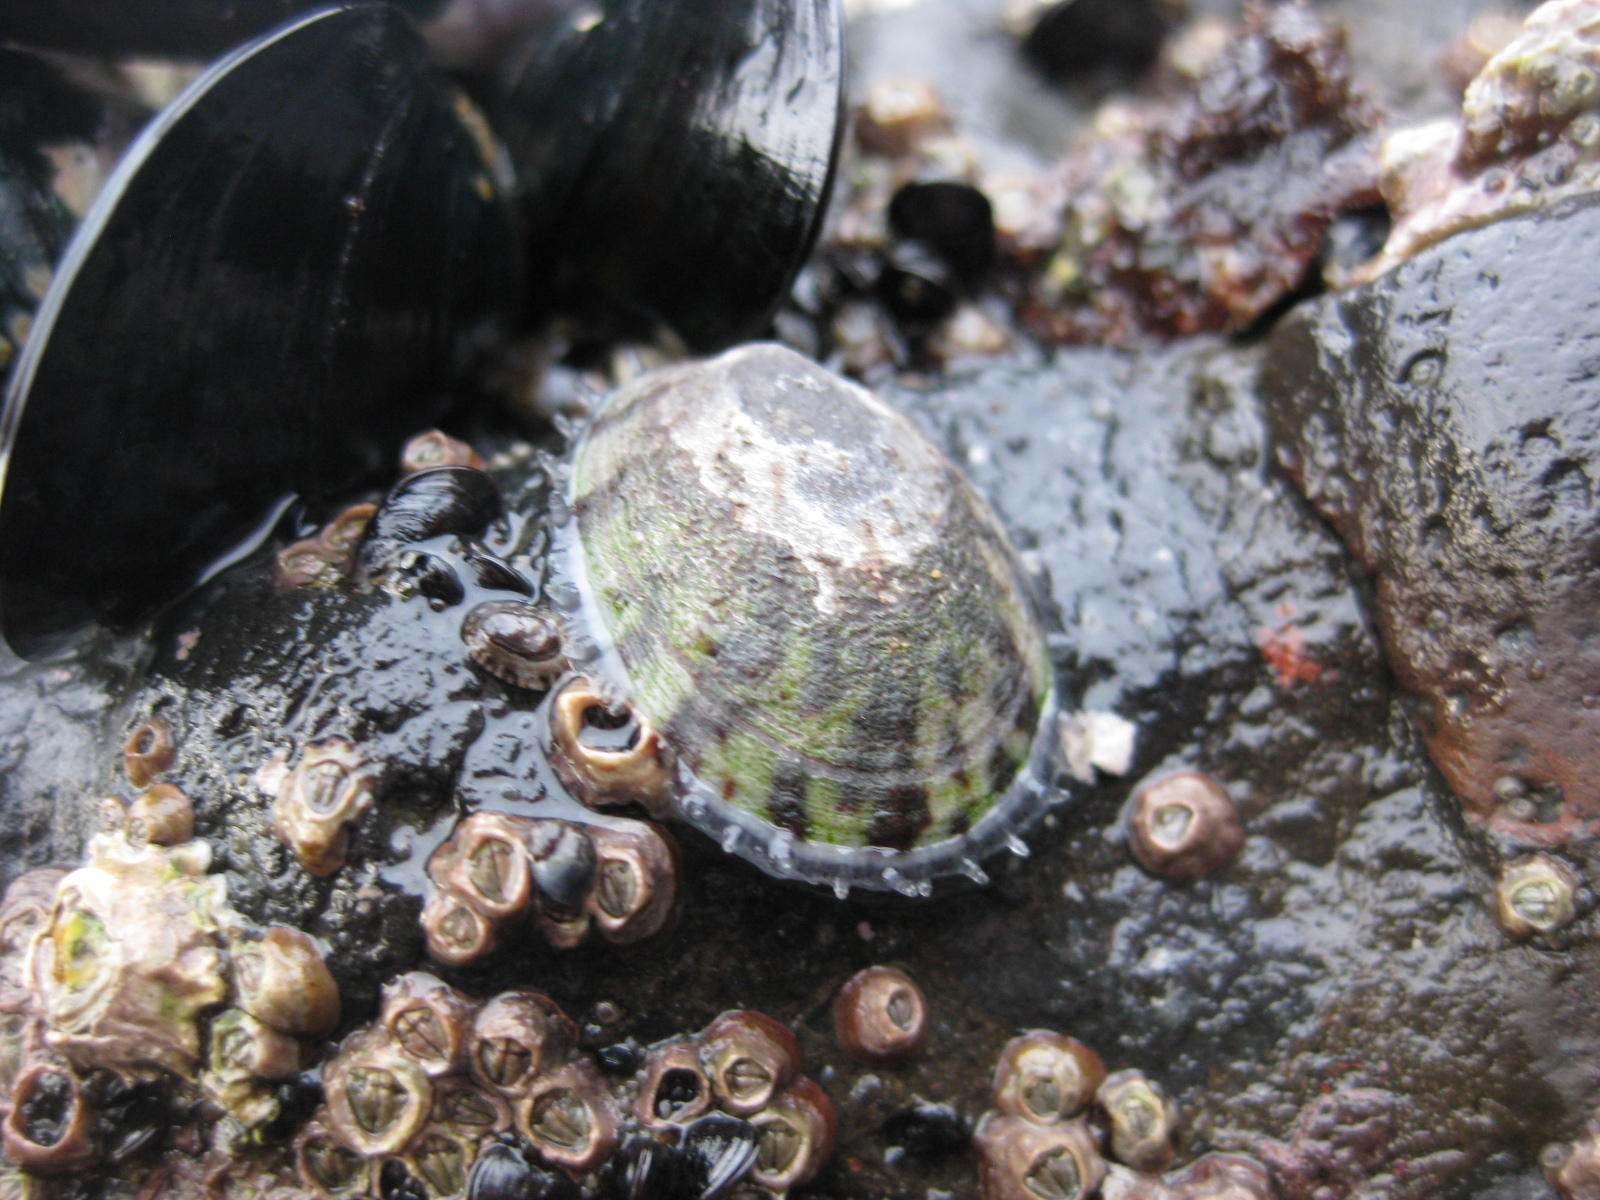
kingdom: Animalia
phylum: Mollusca
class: Gastropoda
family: Nacellidae
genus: Cellana
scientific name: Cellana radians
